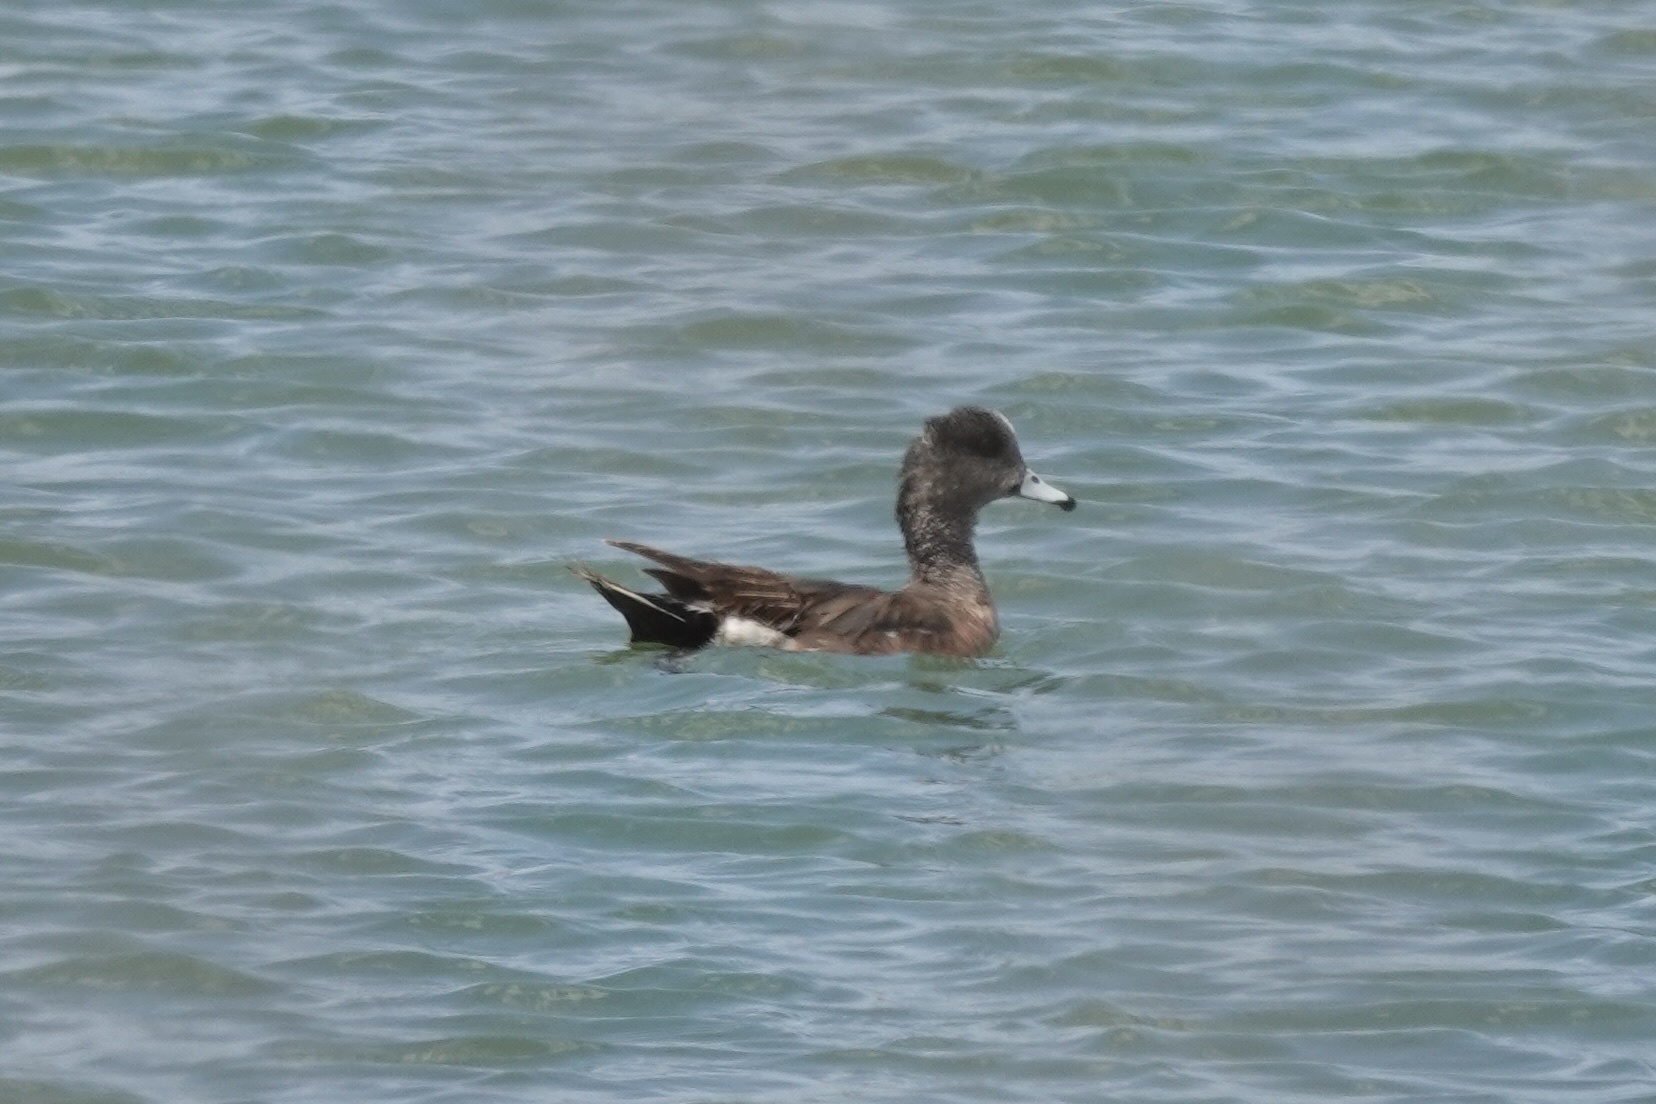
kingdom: Animalia
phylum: Chordata
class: Aves
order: Anseriformes
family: Anatidae
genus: Mareca
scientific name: Mareca americana
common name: American wigeon
